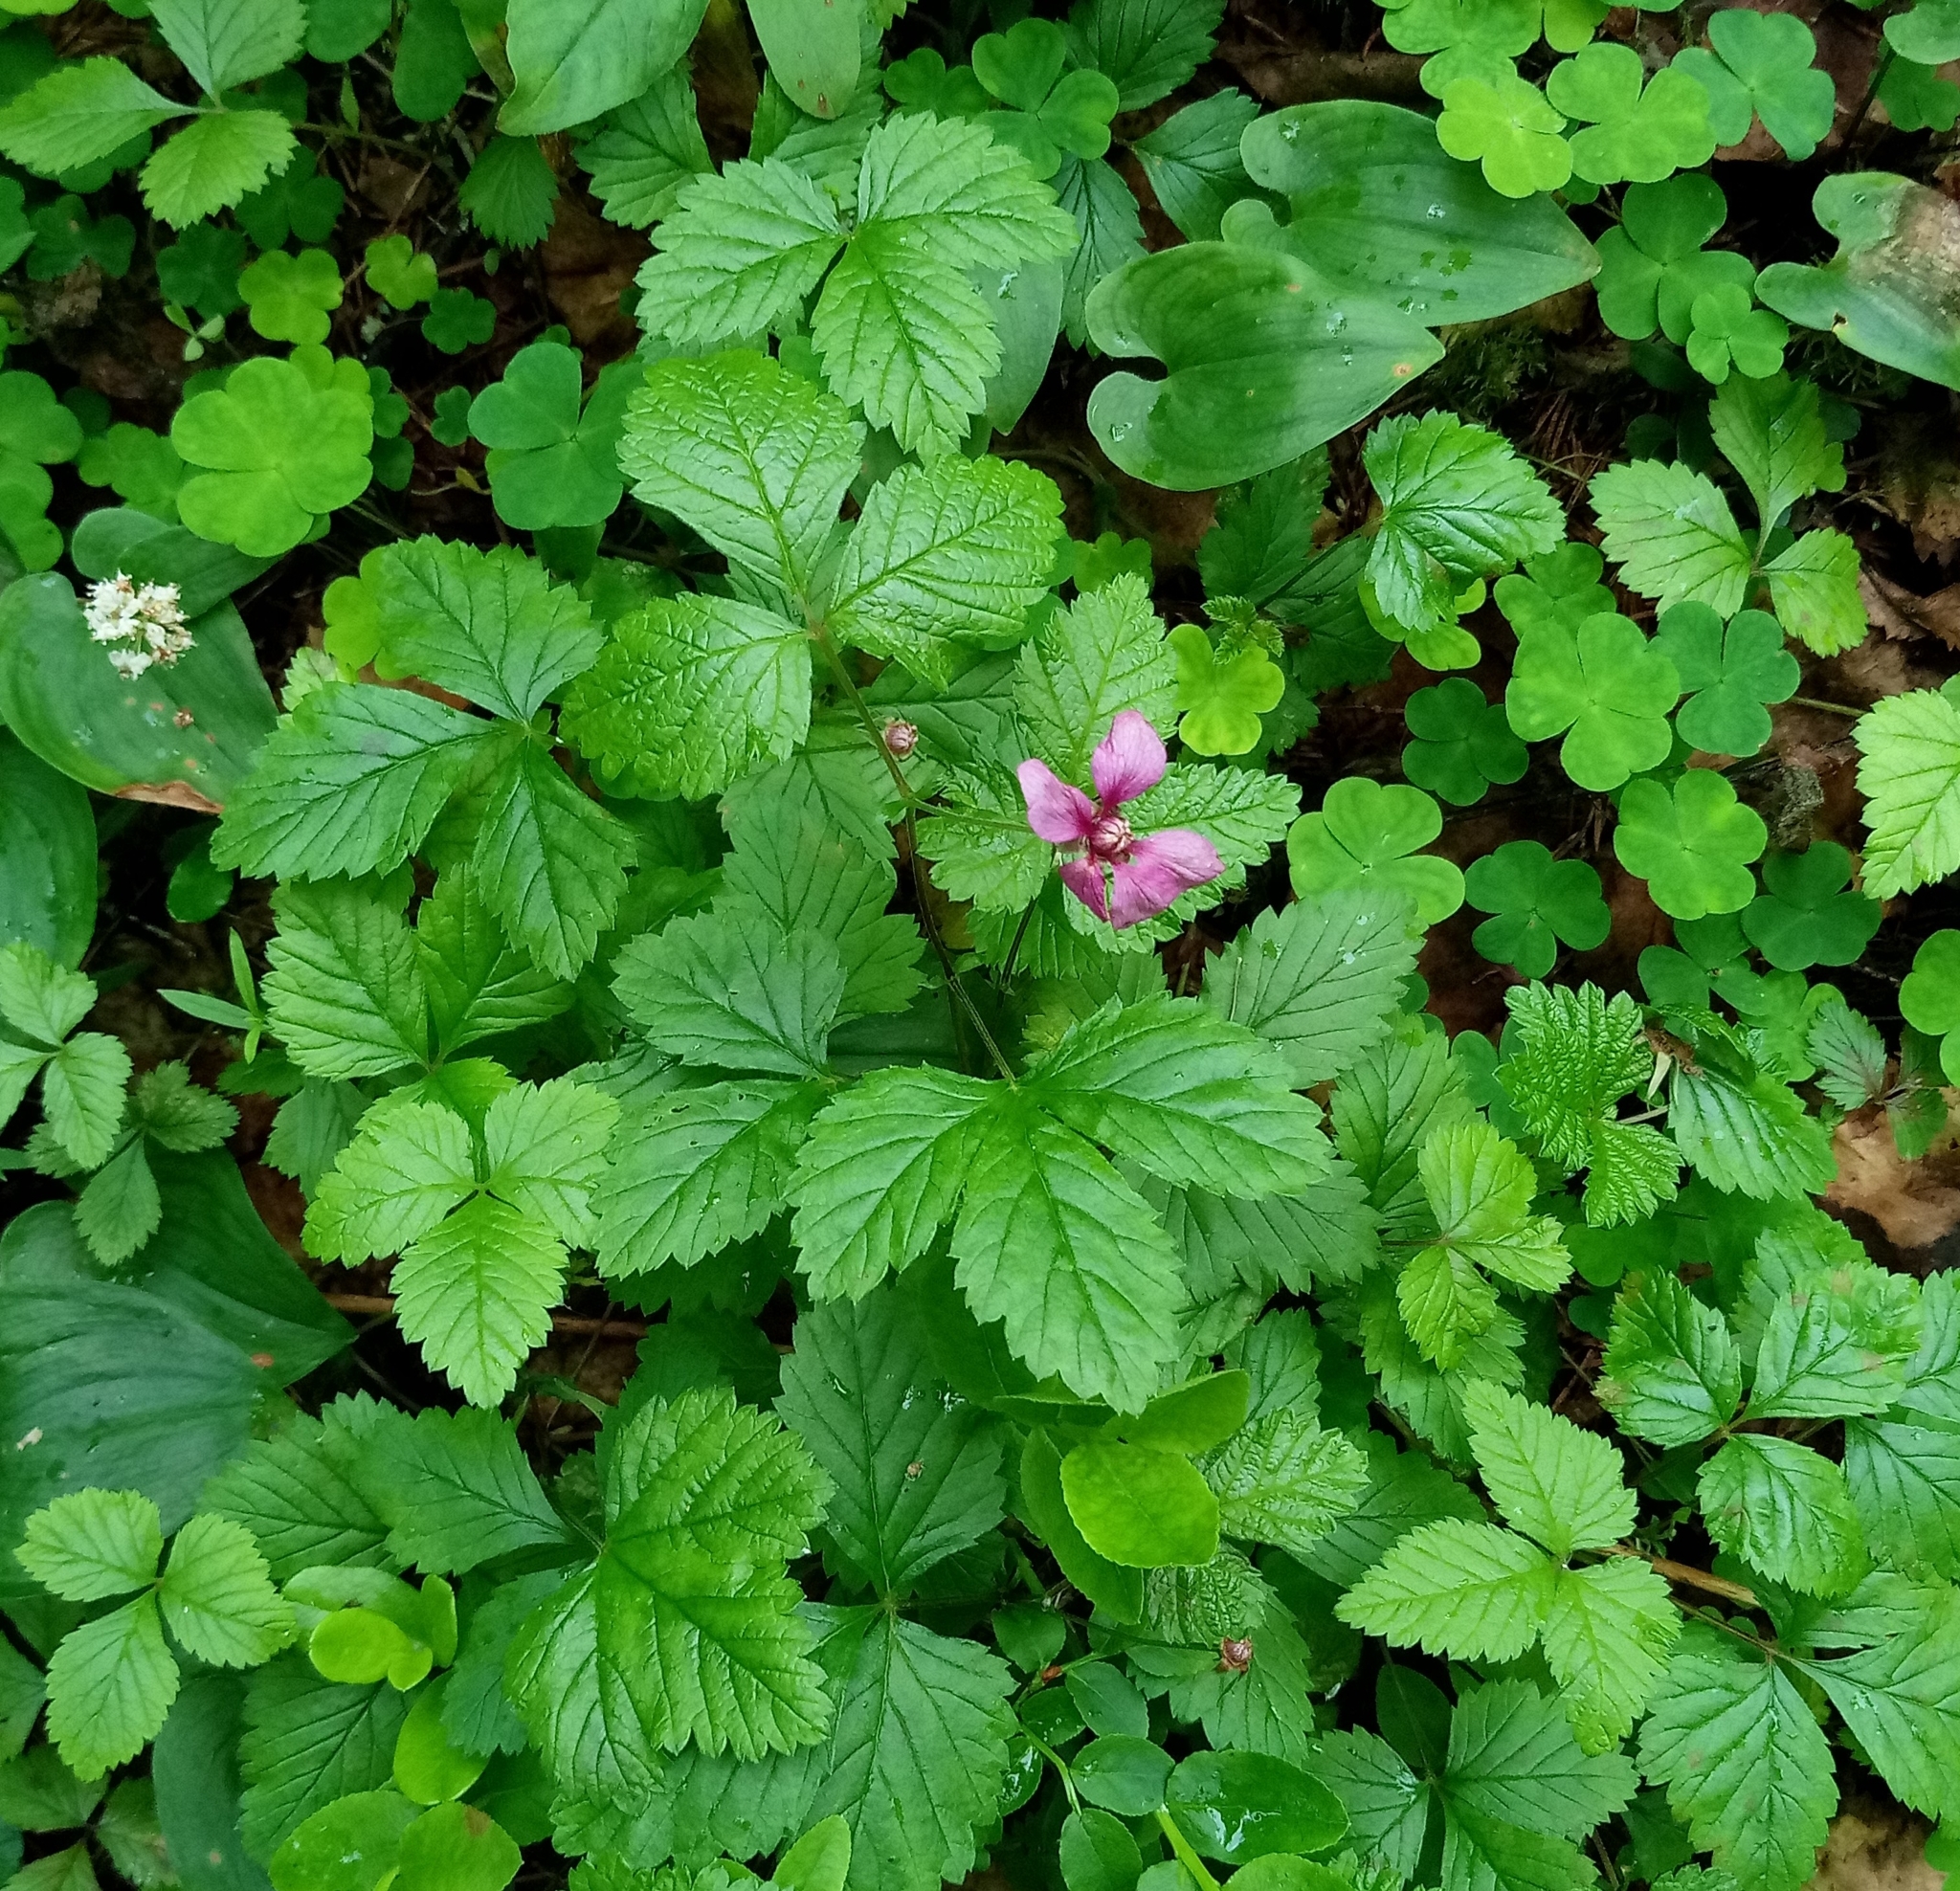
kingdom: Plantae
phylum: Tracheophyta
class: Magnoliopsida
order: Rosales
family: Rosaceae
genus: Rubus
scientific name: Rubus arcticus
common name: Arctic bramble
